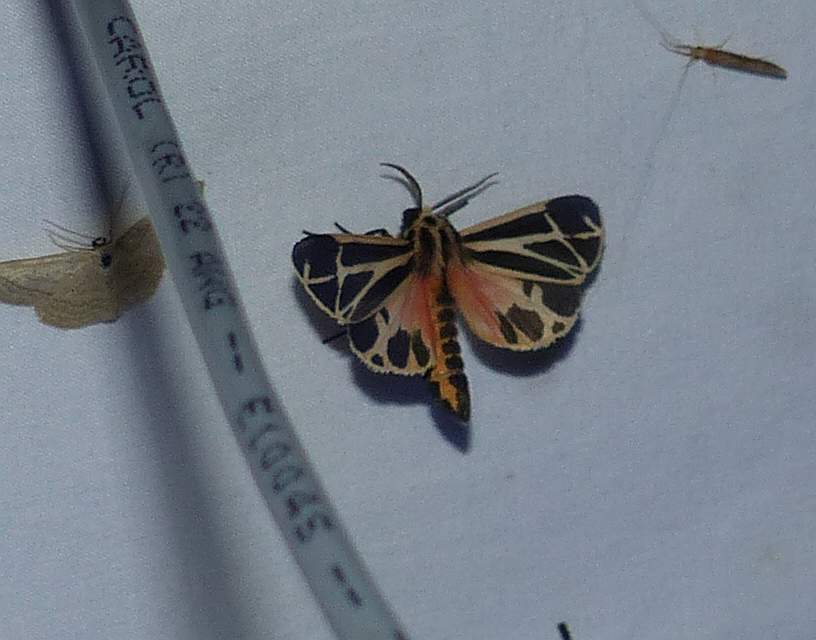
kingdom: Animalia
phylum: Arthropoda
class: Insecta
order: Lepidoptera
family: Erebidae
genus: Apantesis
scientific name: Apantesis phalerata
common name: Harnessed tiger moth
